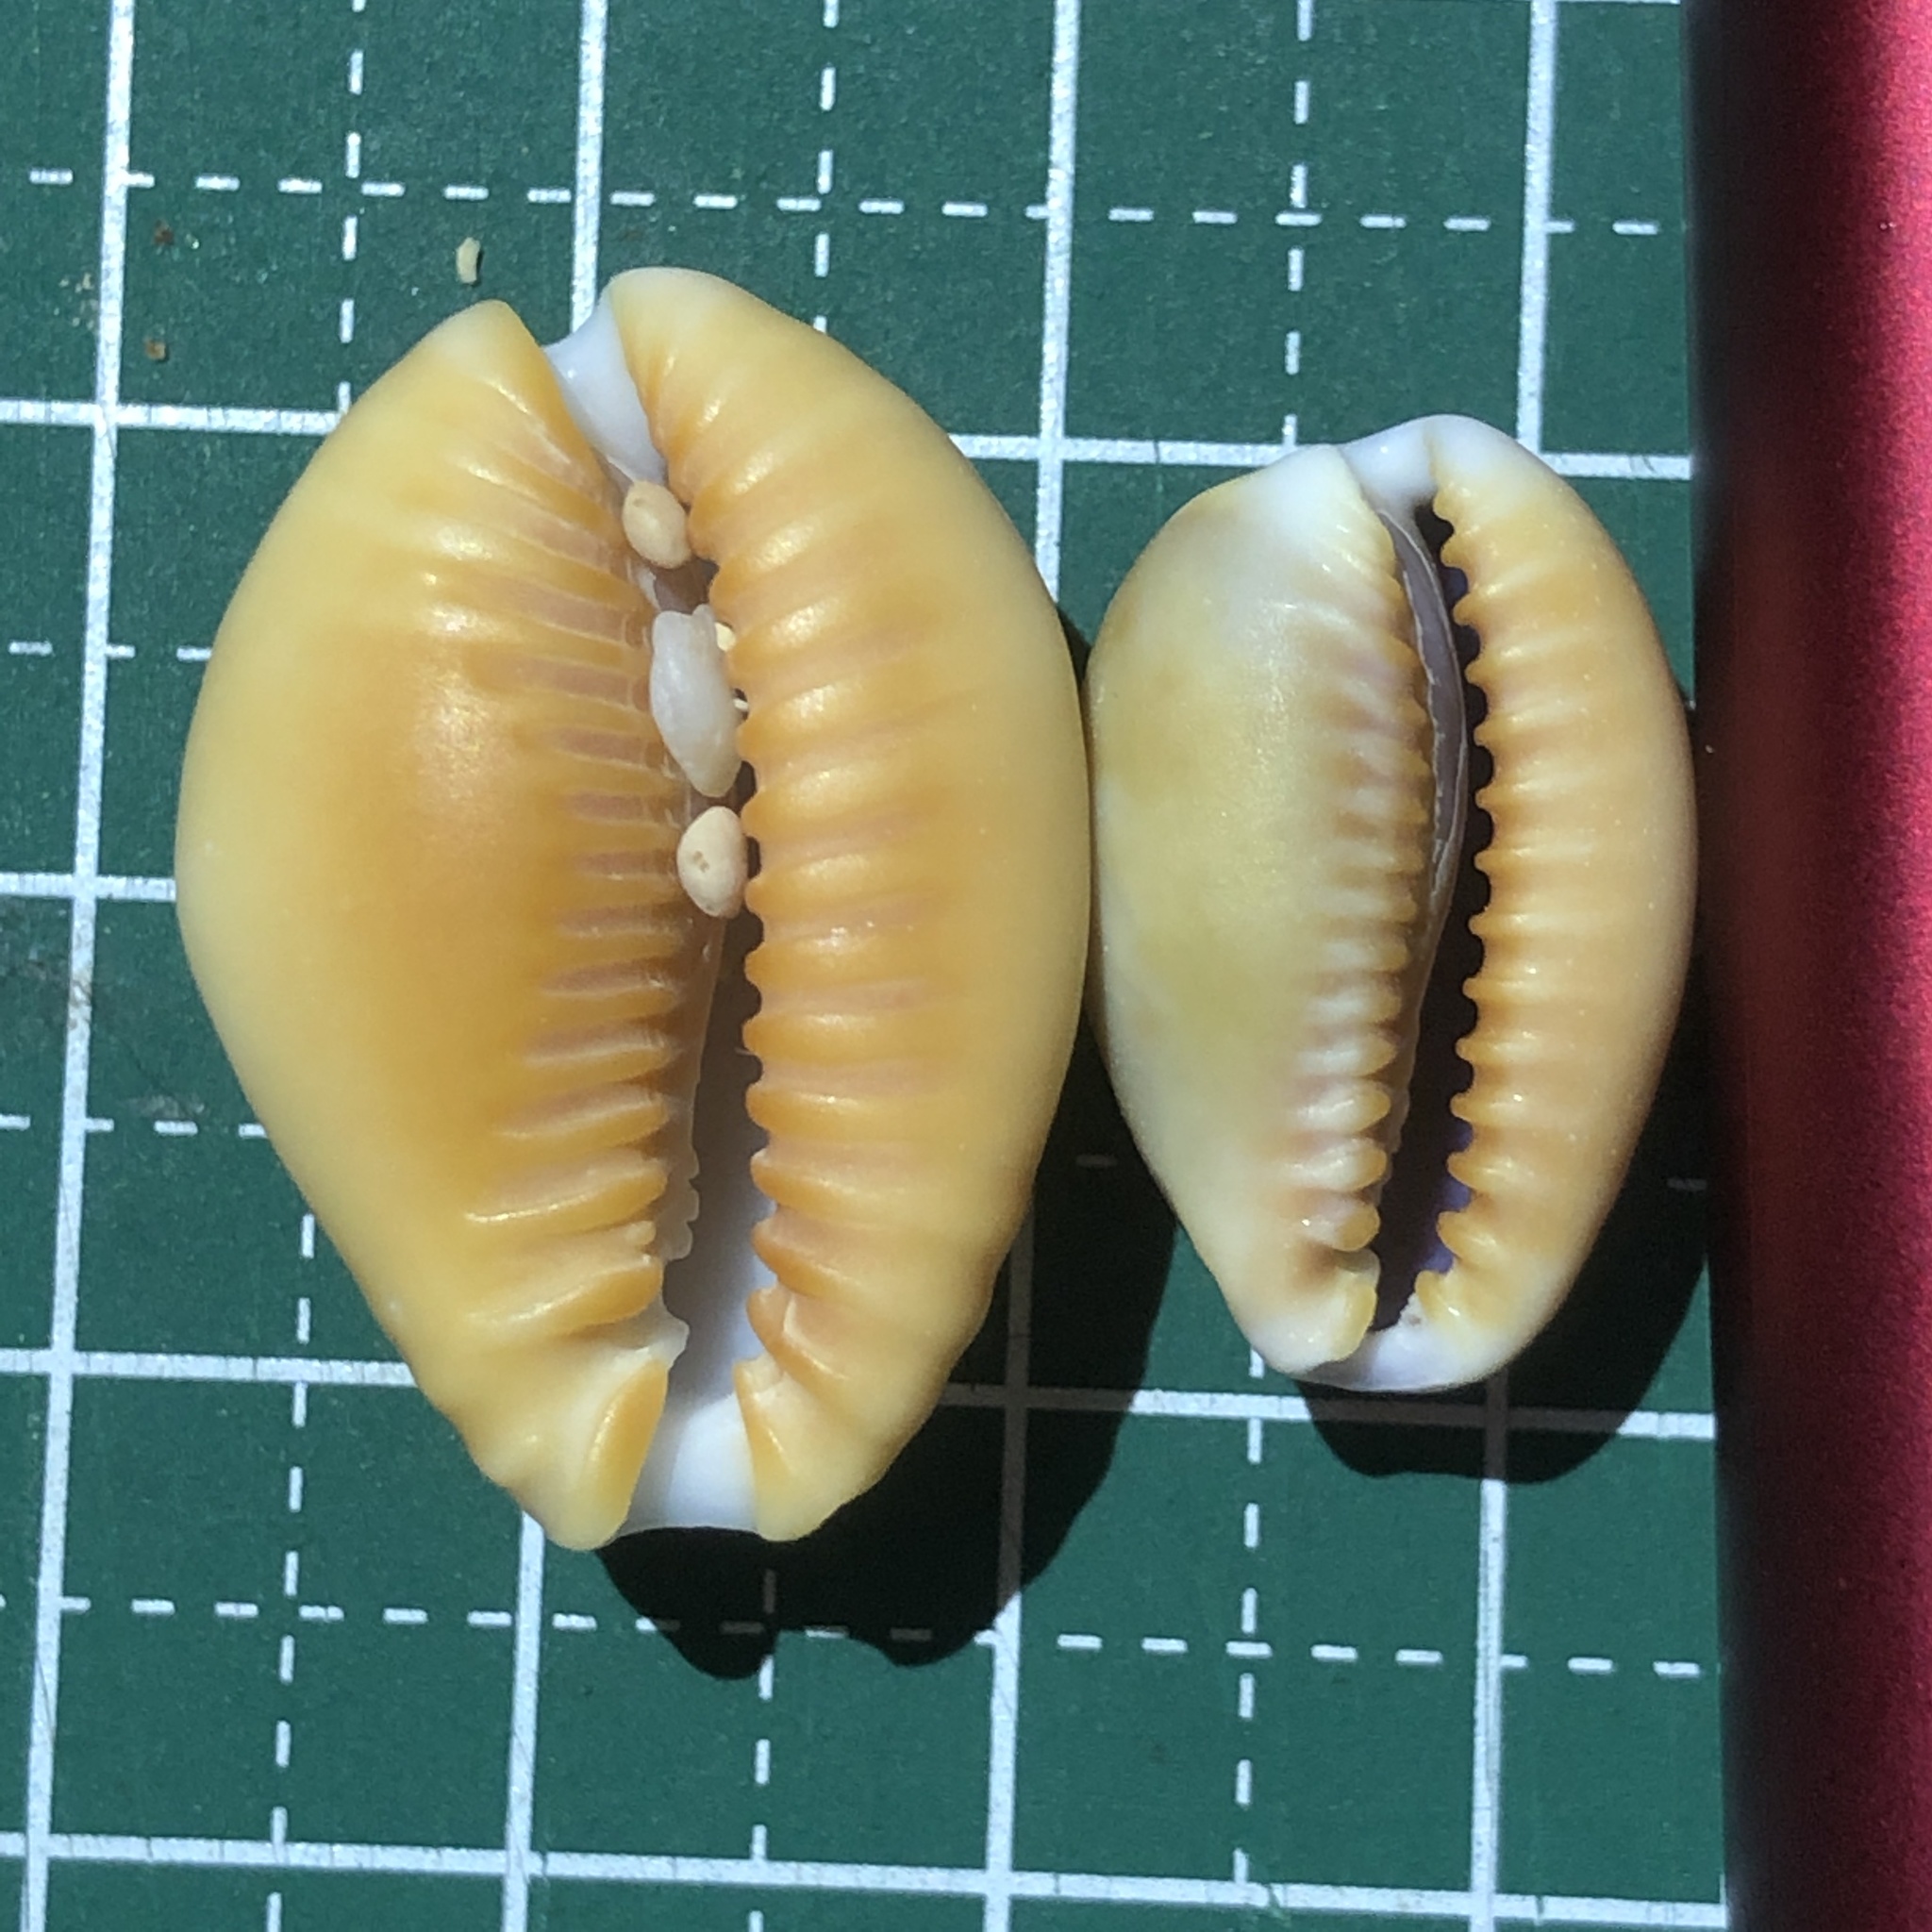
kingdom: Animalia
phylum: Mollusca
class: Gastropoda
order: Littorinimorpha
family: Cypraeidae
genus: Naria
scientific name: Naria helvola
